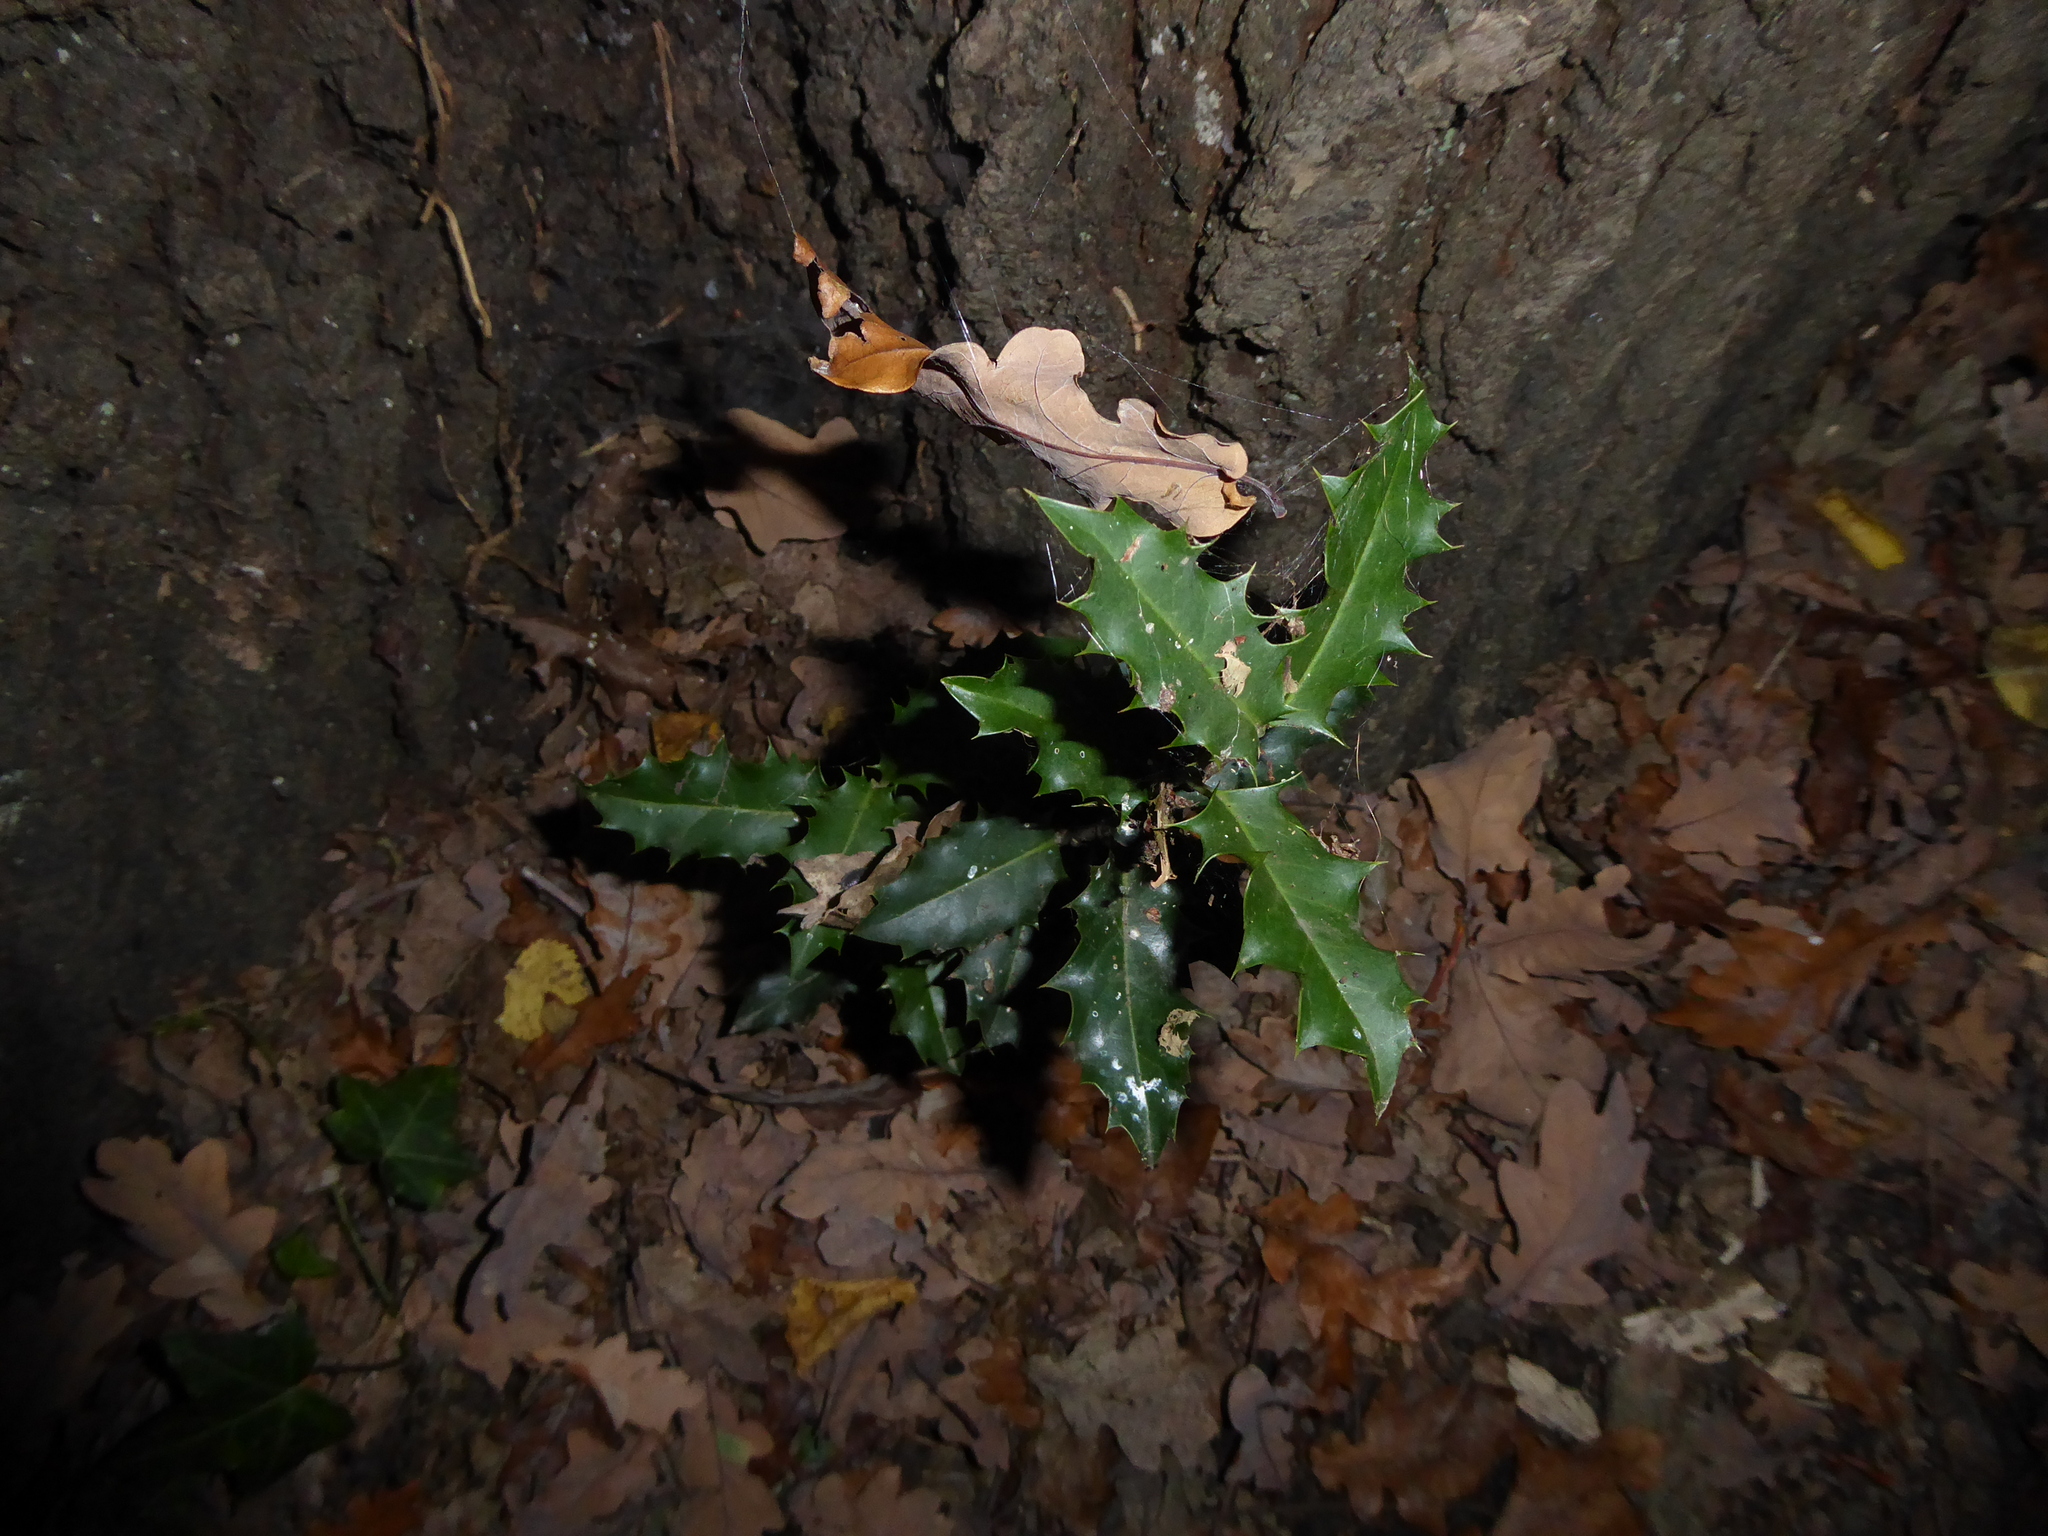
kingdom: Plantae
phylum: Tracheophyta
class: Magnoliopsida
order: Aquifoliales
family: Aquifoliaceae
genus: Ilex
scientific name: Ilex aquifolium
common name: English holly
